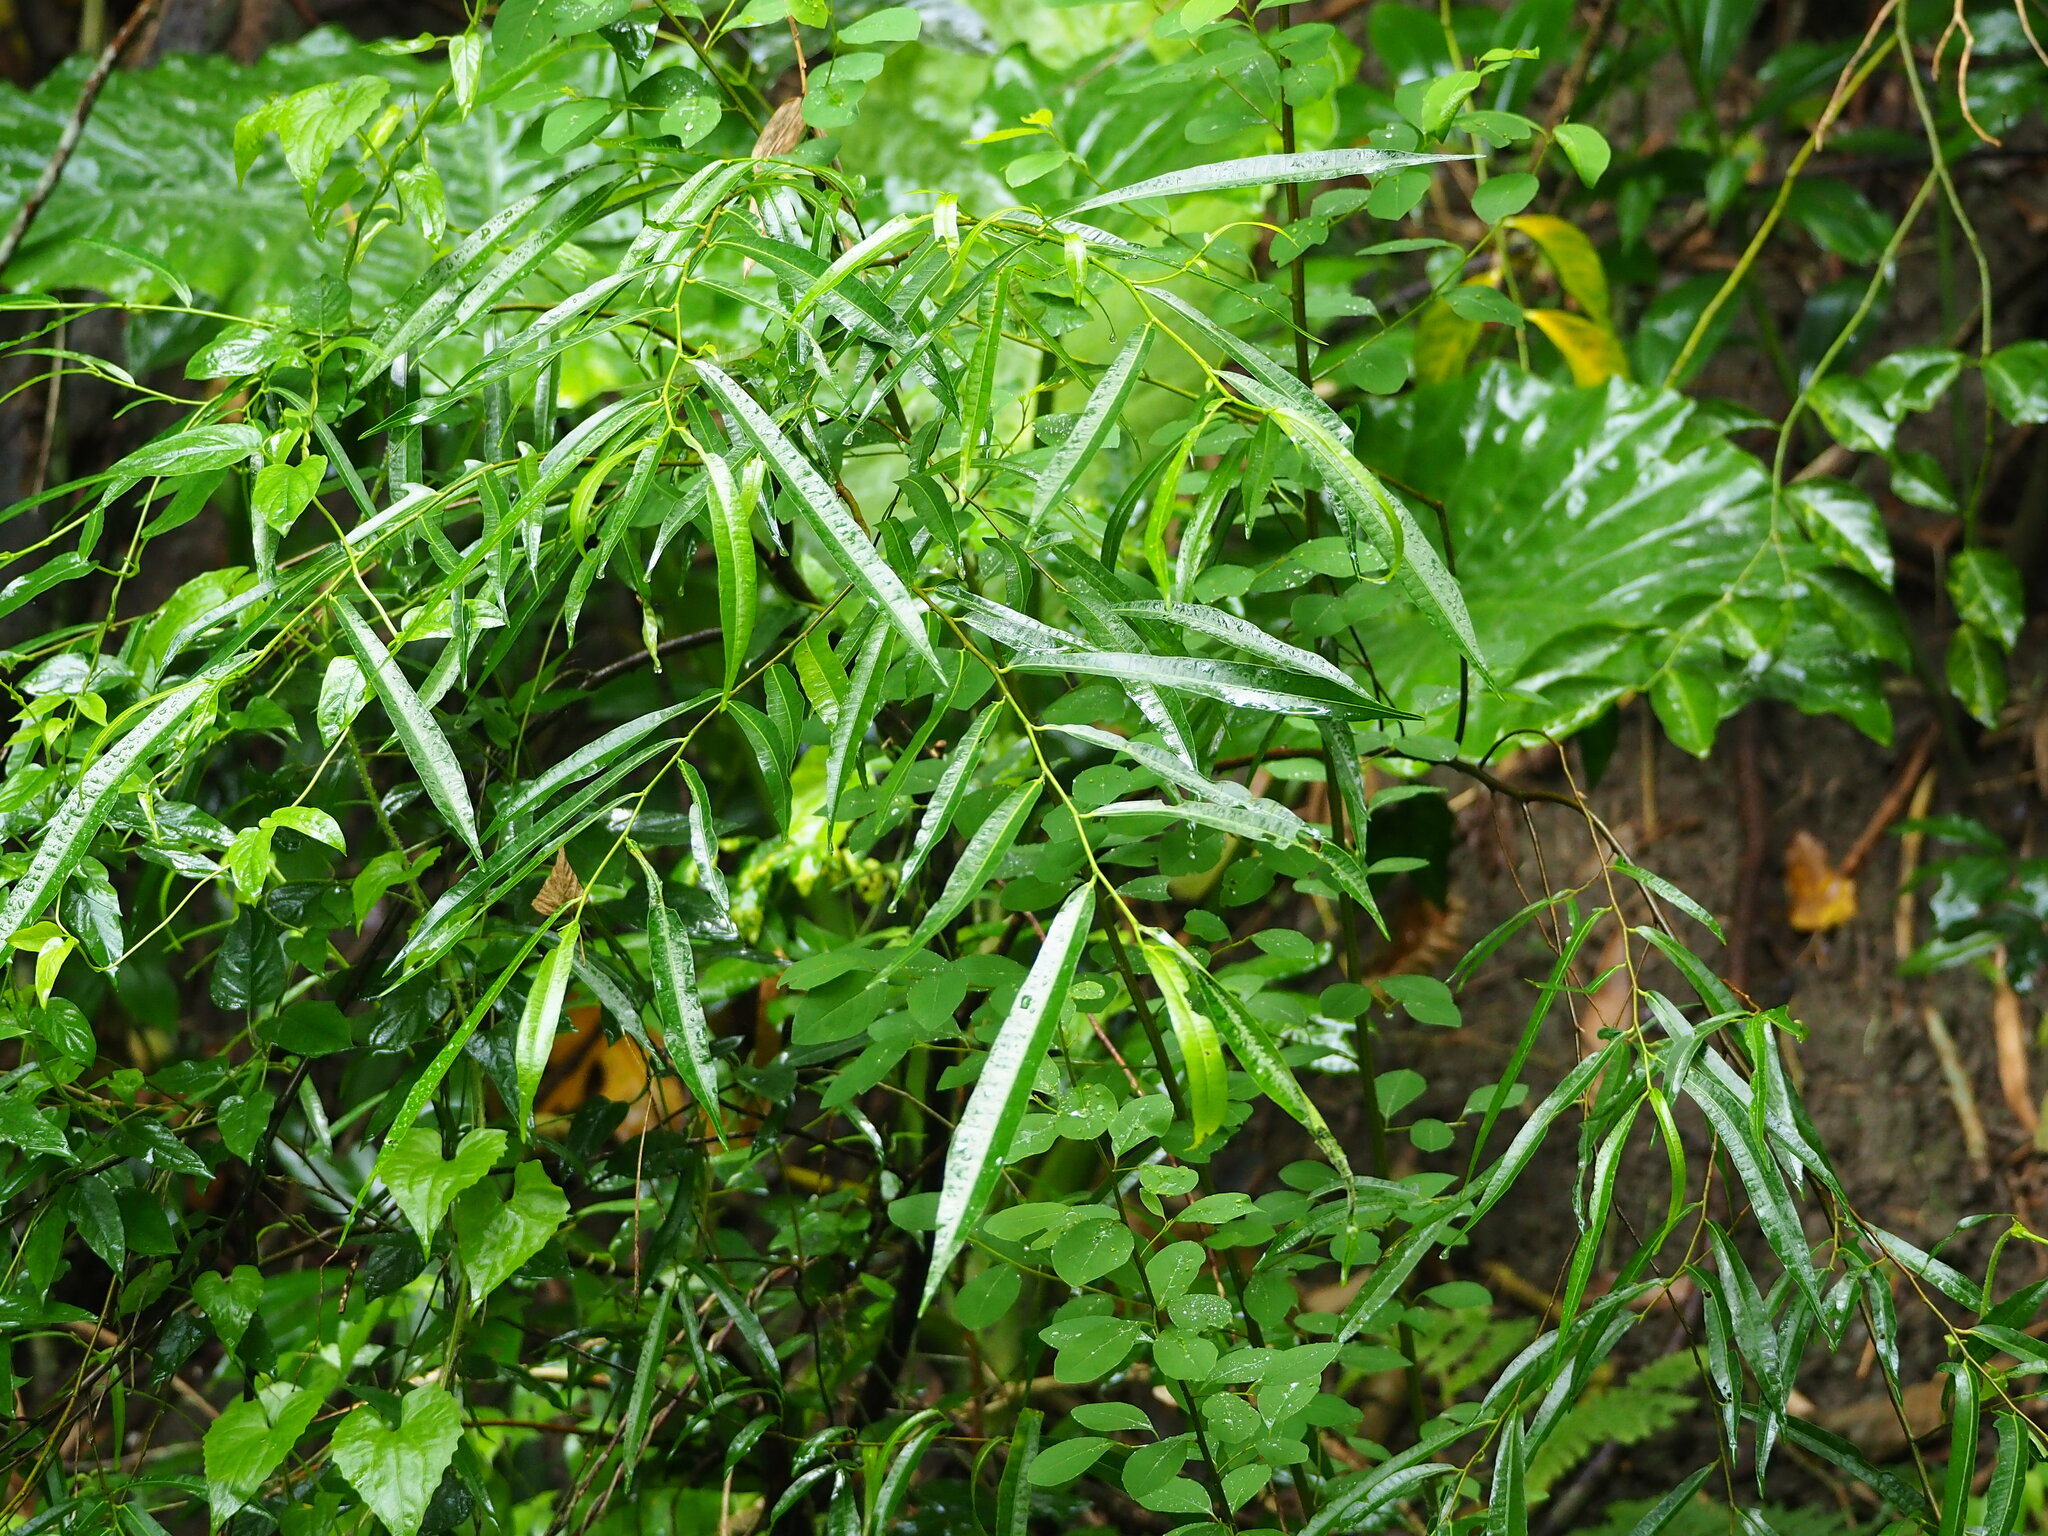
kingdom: Plantae
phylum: Tracheophyta
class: Magnoliopsida
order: Rosales
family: Moraceae
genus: Ficus
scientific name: Ficus ampelos
